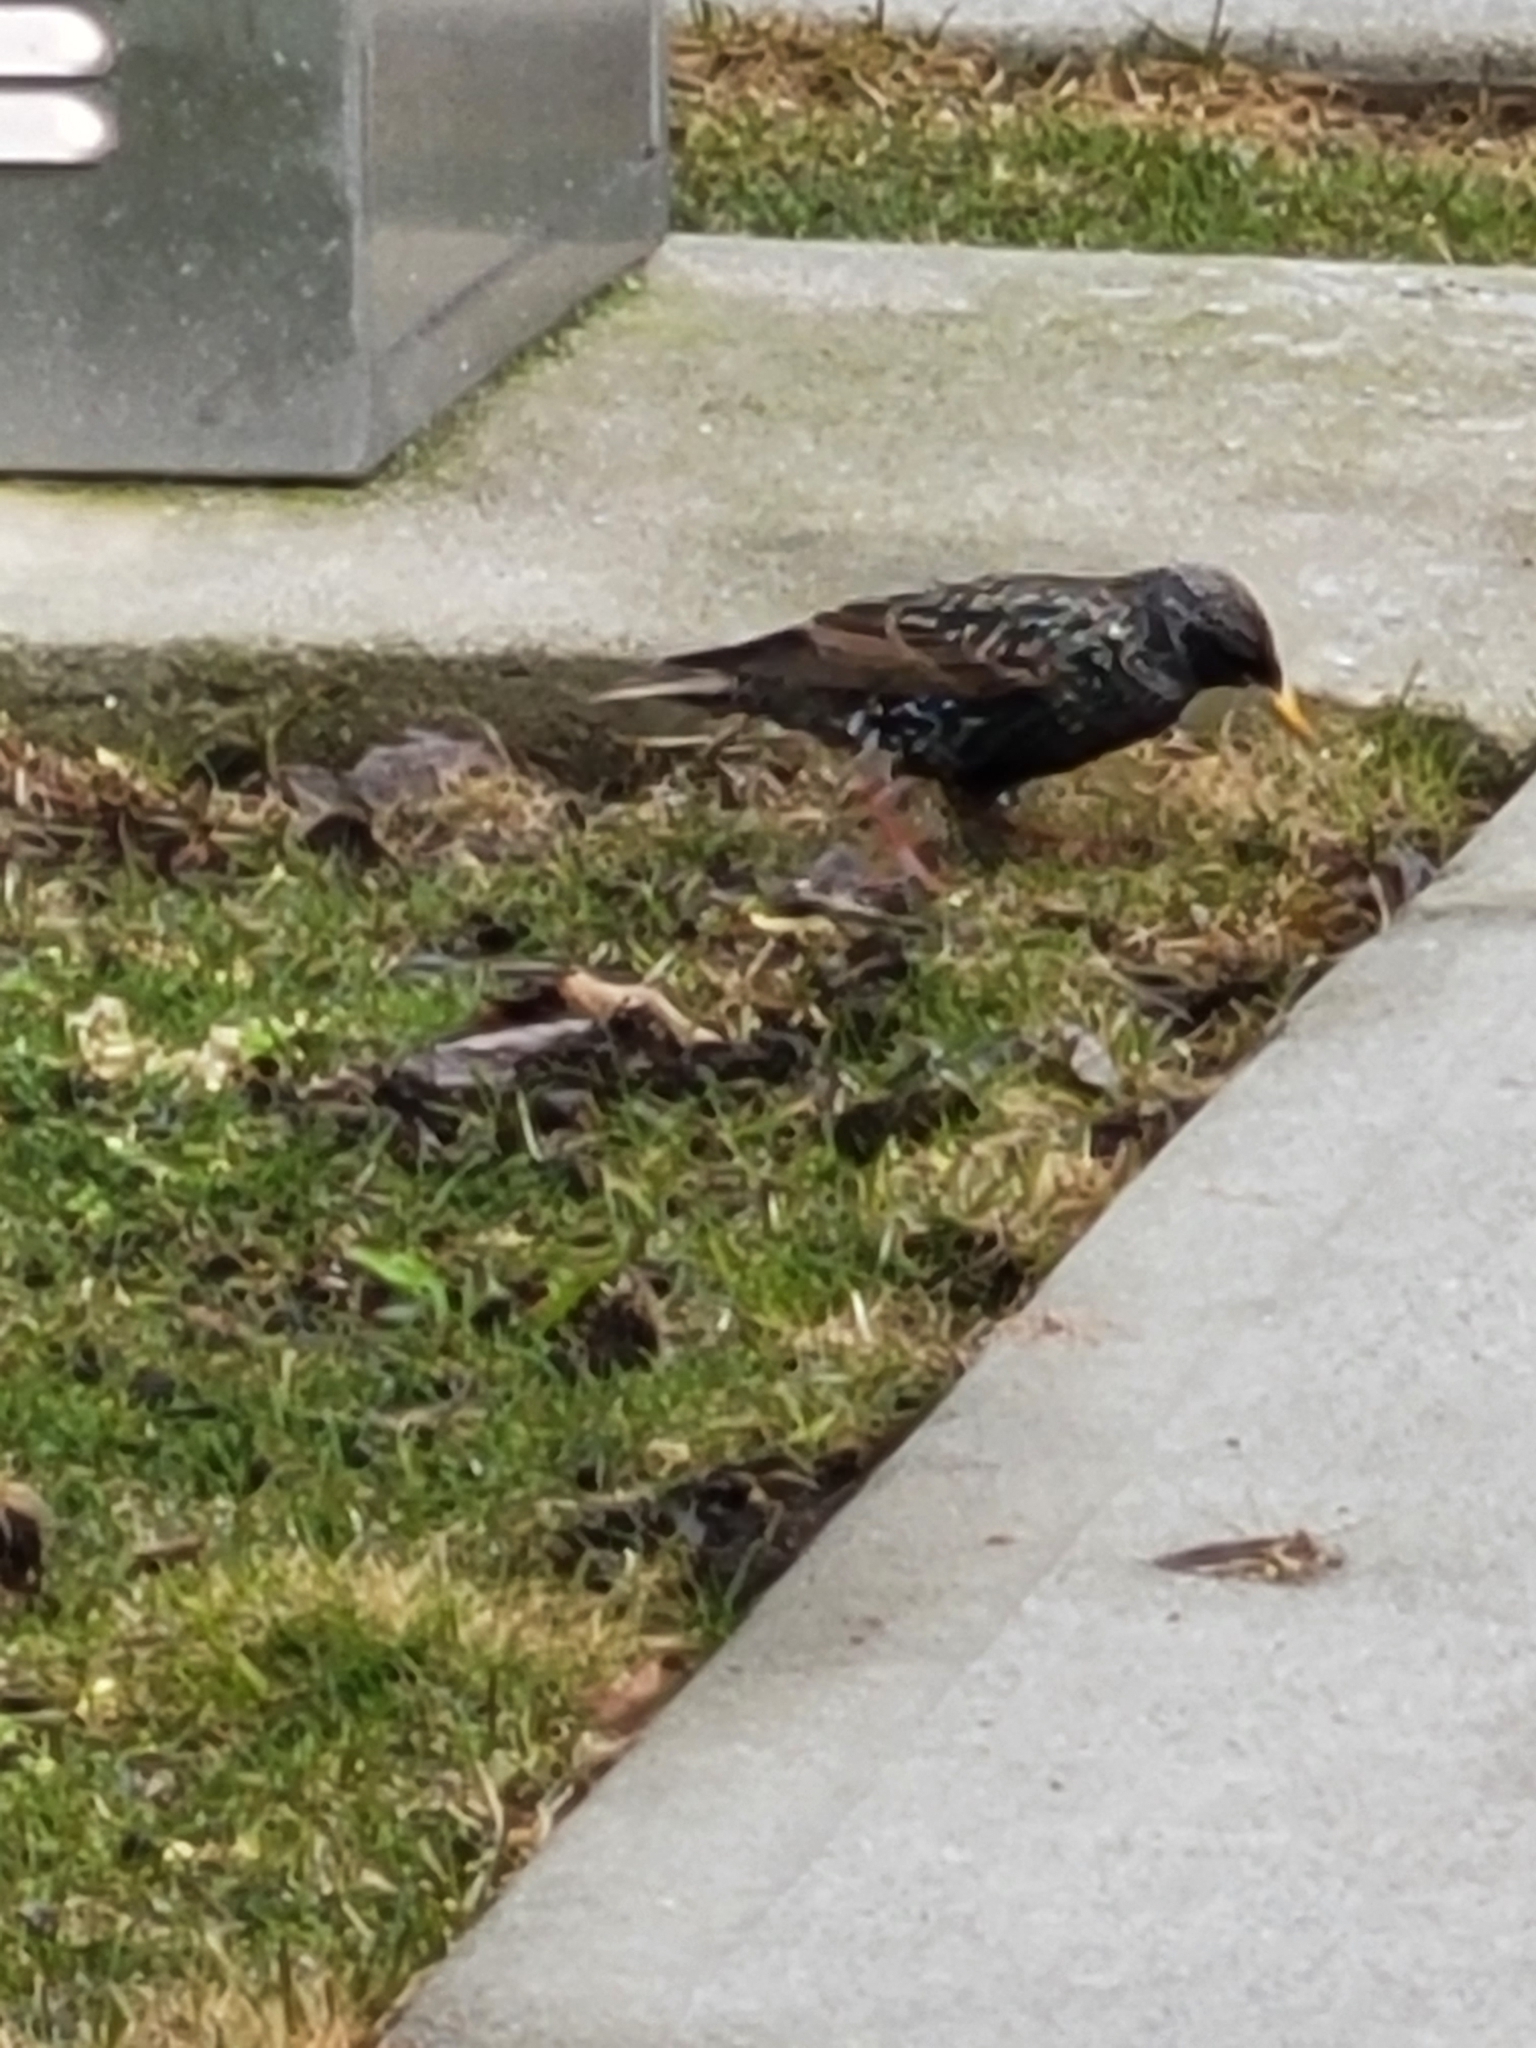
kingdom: Animalia
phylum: Chordata
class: Aves
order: Passeriformes
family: Sturnidae
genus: Sturnus
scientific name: Sturnus vulgaris
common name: Common starling
